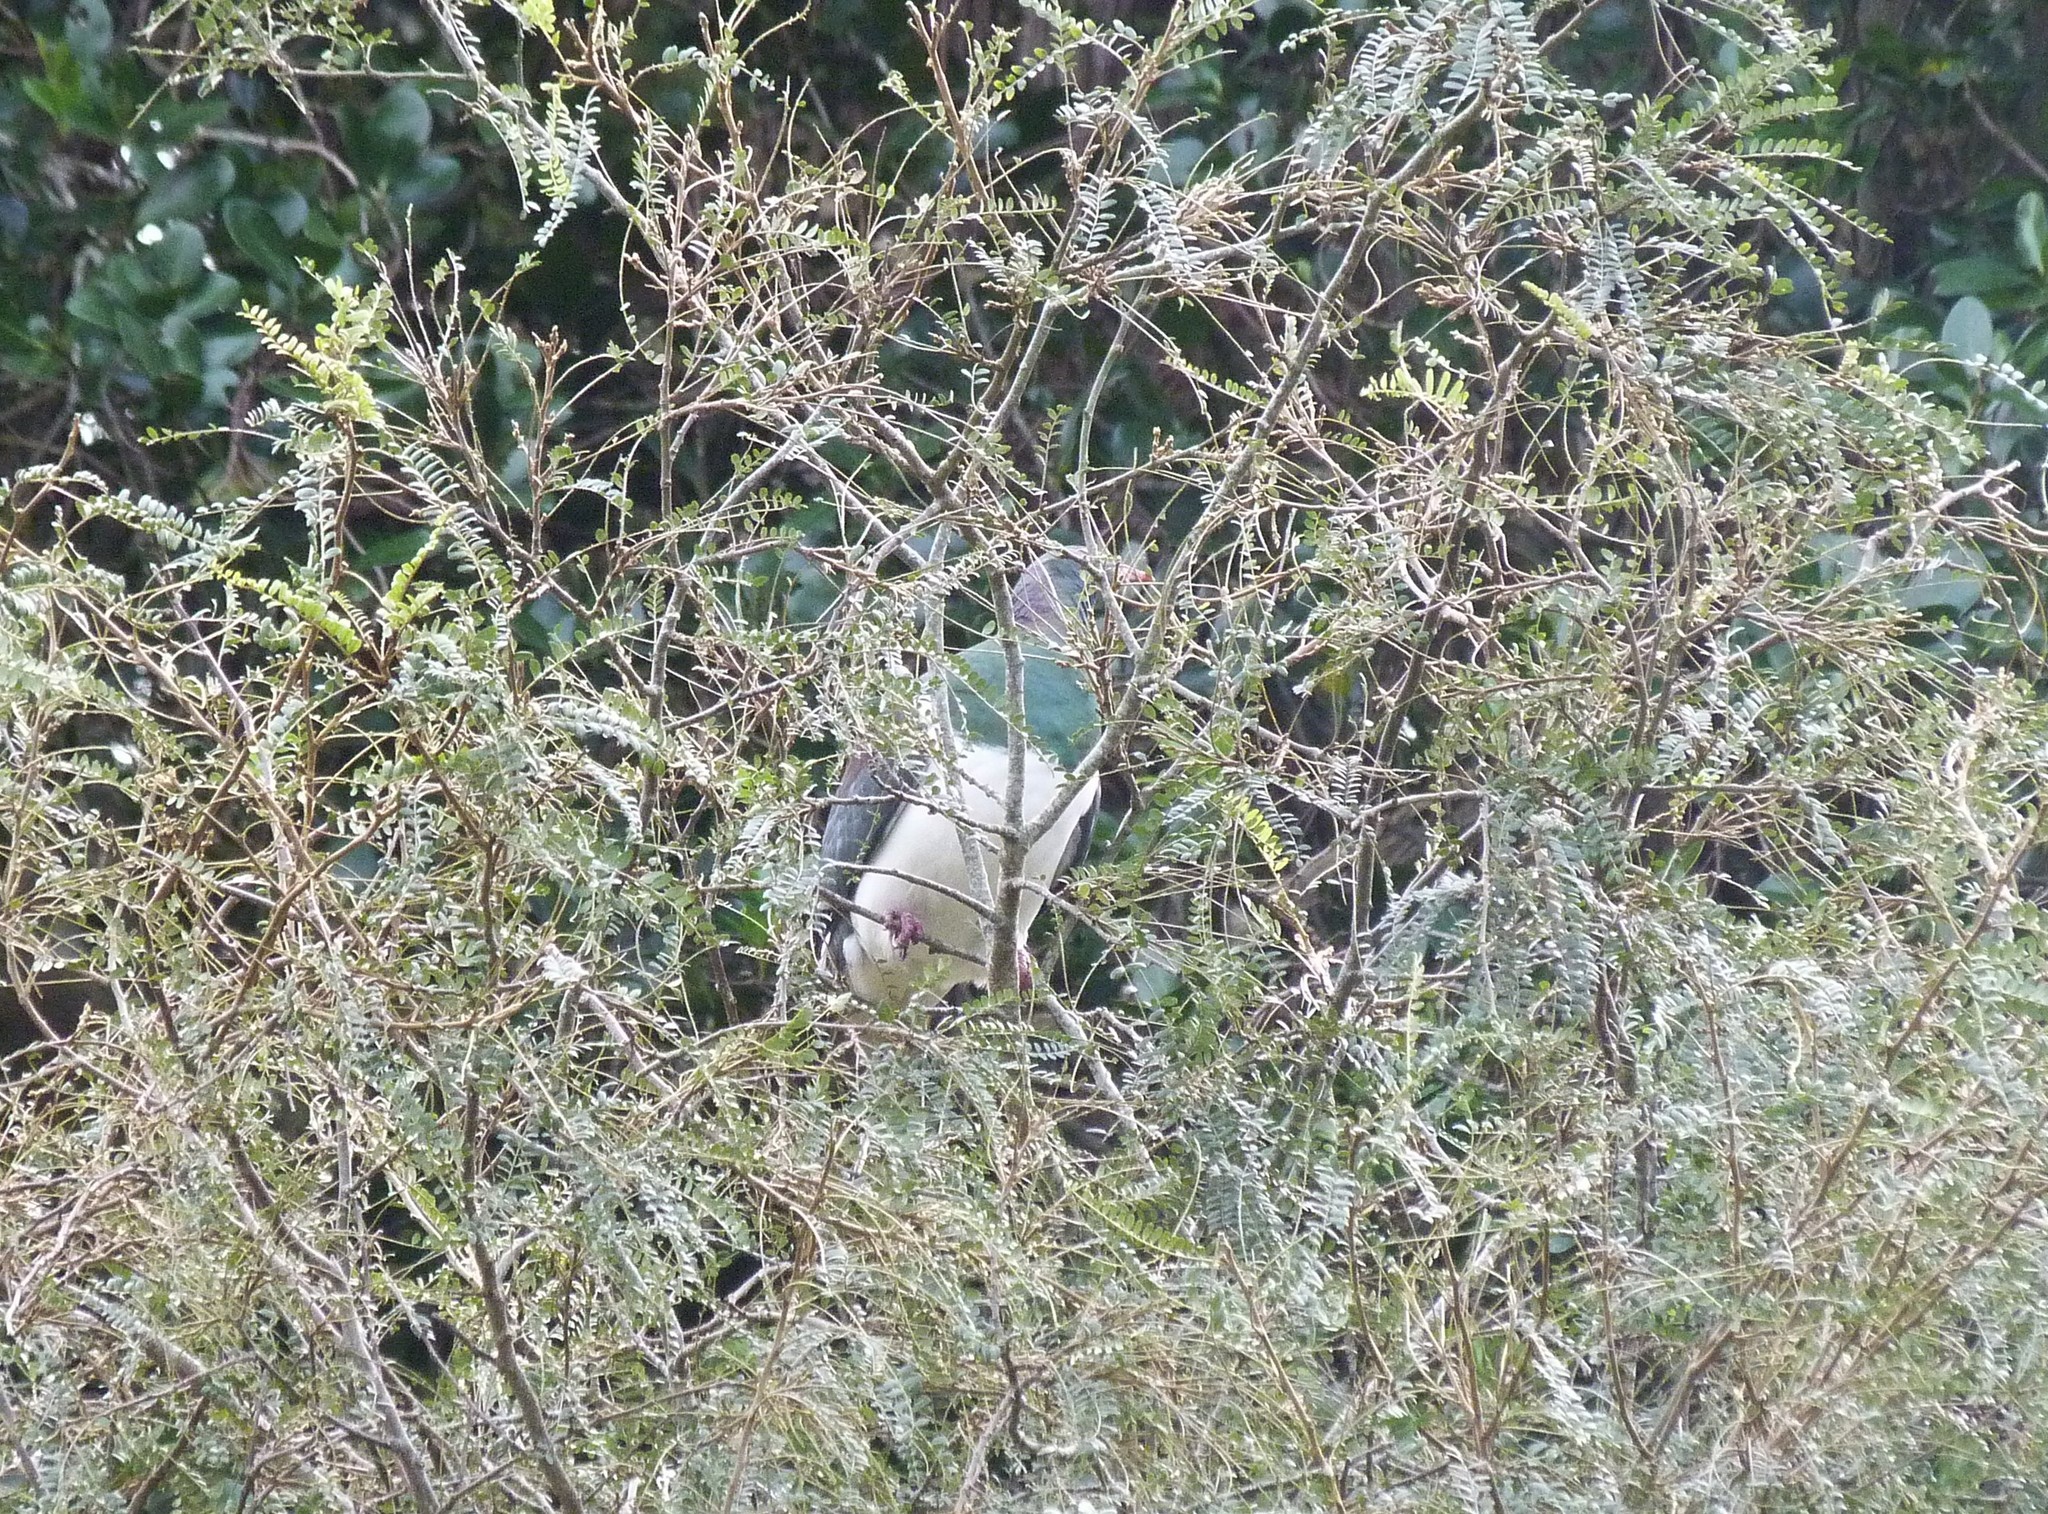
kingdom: Animalia
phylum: Chordata
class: Aves
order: Columbiformes
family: Columbidae
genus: Hemiphaga
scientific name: Hemiphaga novaeseelandiae
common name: New zealand pigeon
